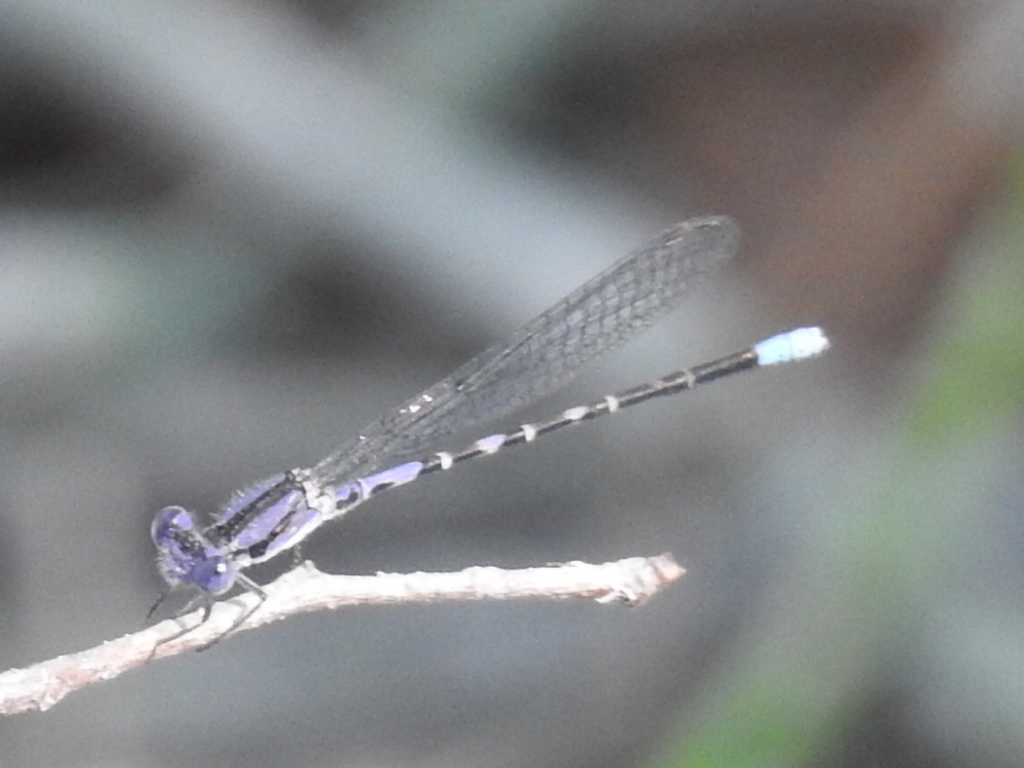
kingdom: Animalia
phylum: Arthropoda
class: Insecta
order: Odonata
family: Coenagrionidae
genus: Argia
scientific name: Argia immunda
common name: Kiowa dancer
